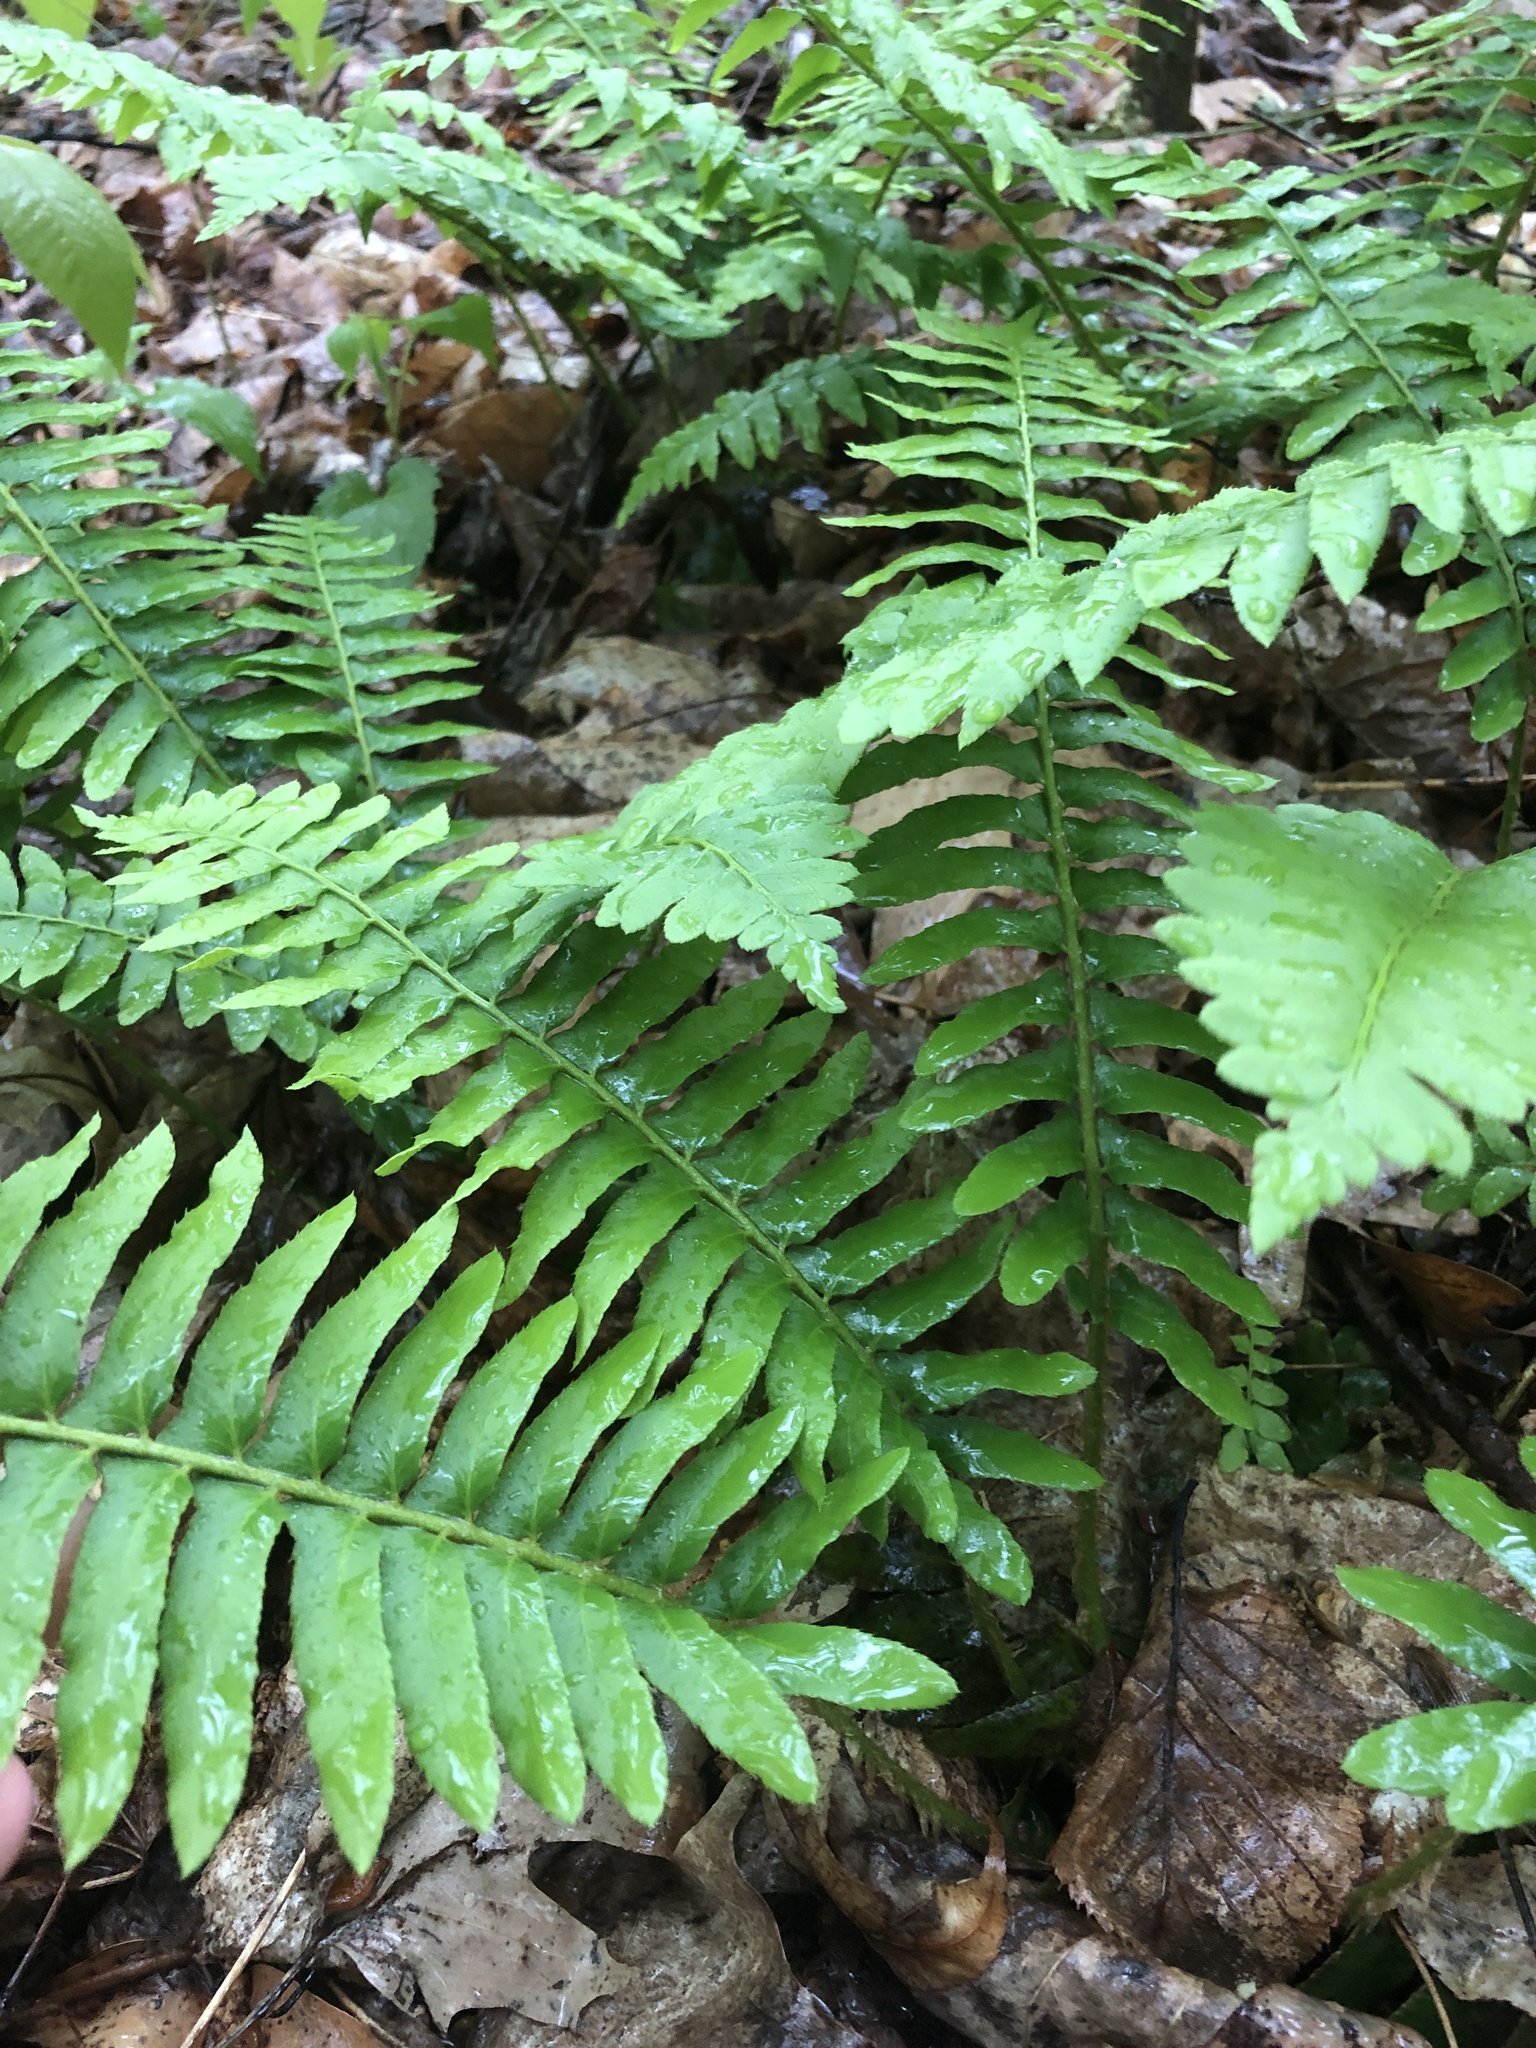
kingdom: Plantae
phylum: Tracheophyta
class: Polypodiopsida
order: Polypodiales
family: Dryopteridaceae
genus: Polystichum
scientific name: Polystichum acrostichoides
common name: Christmas fern
